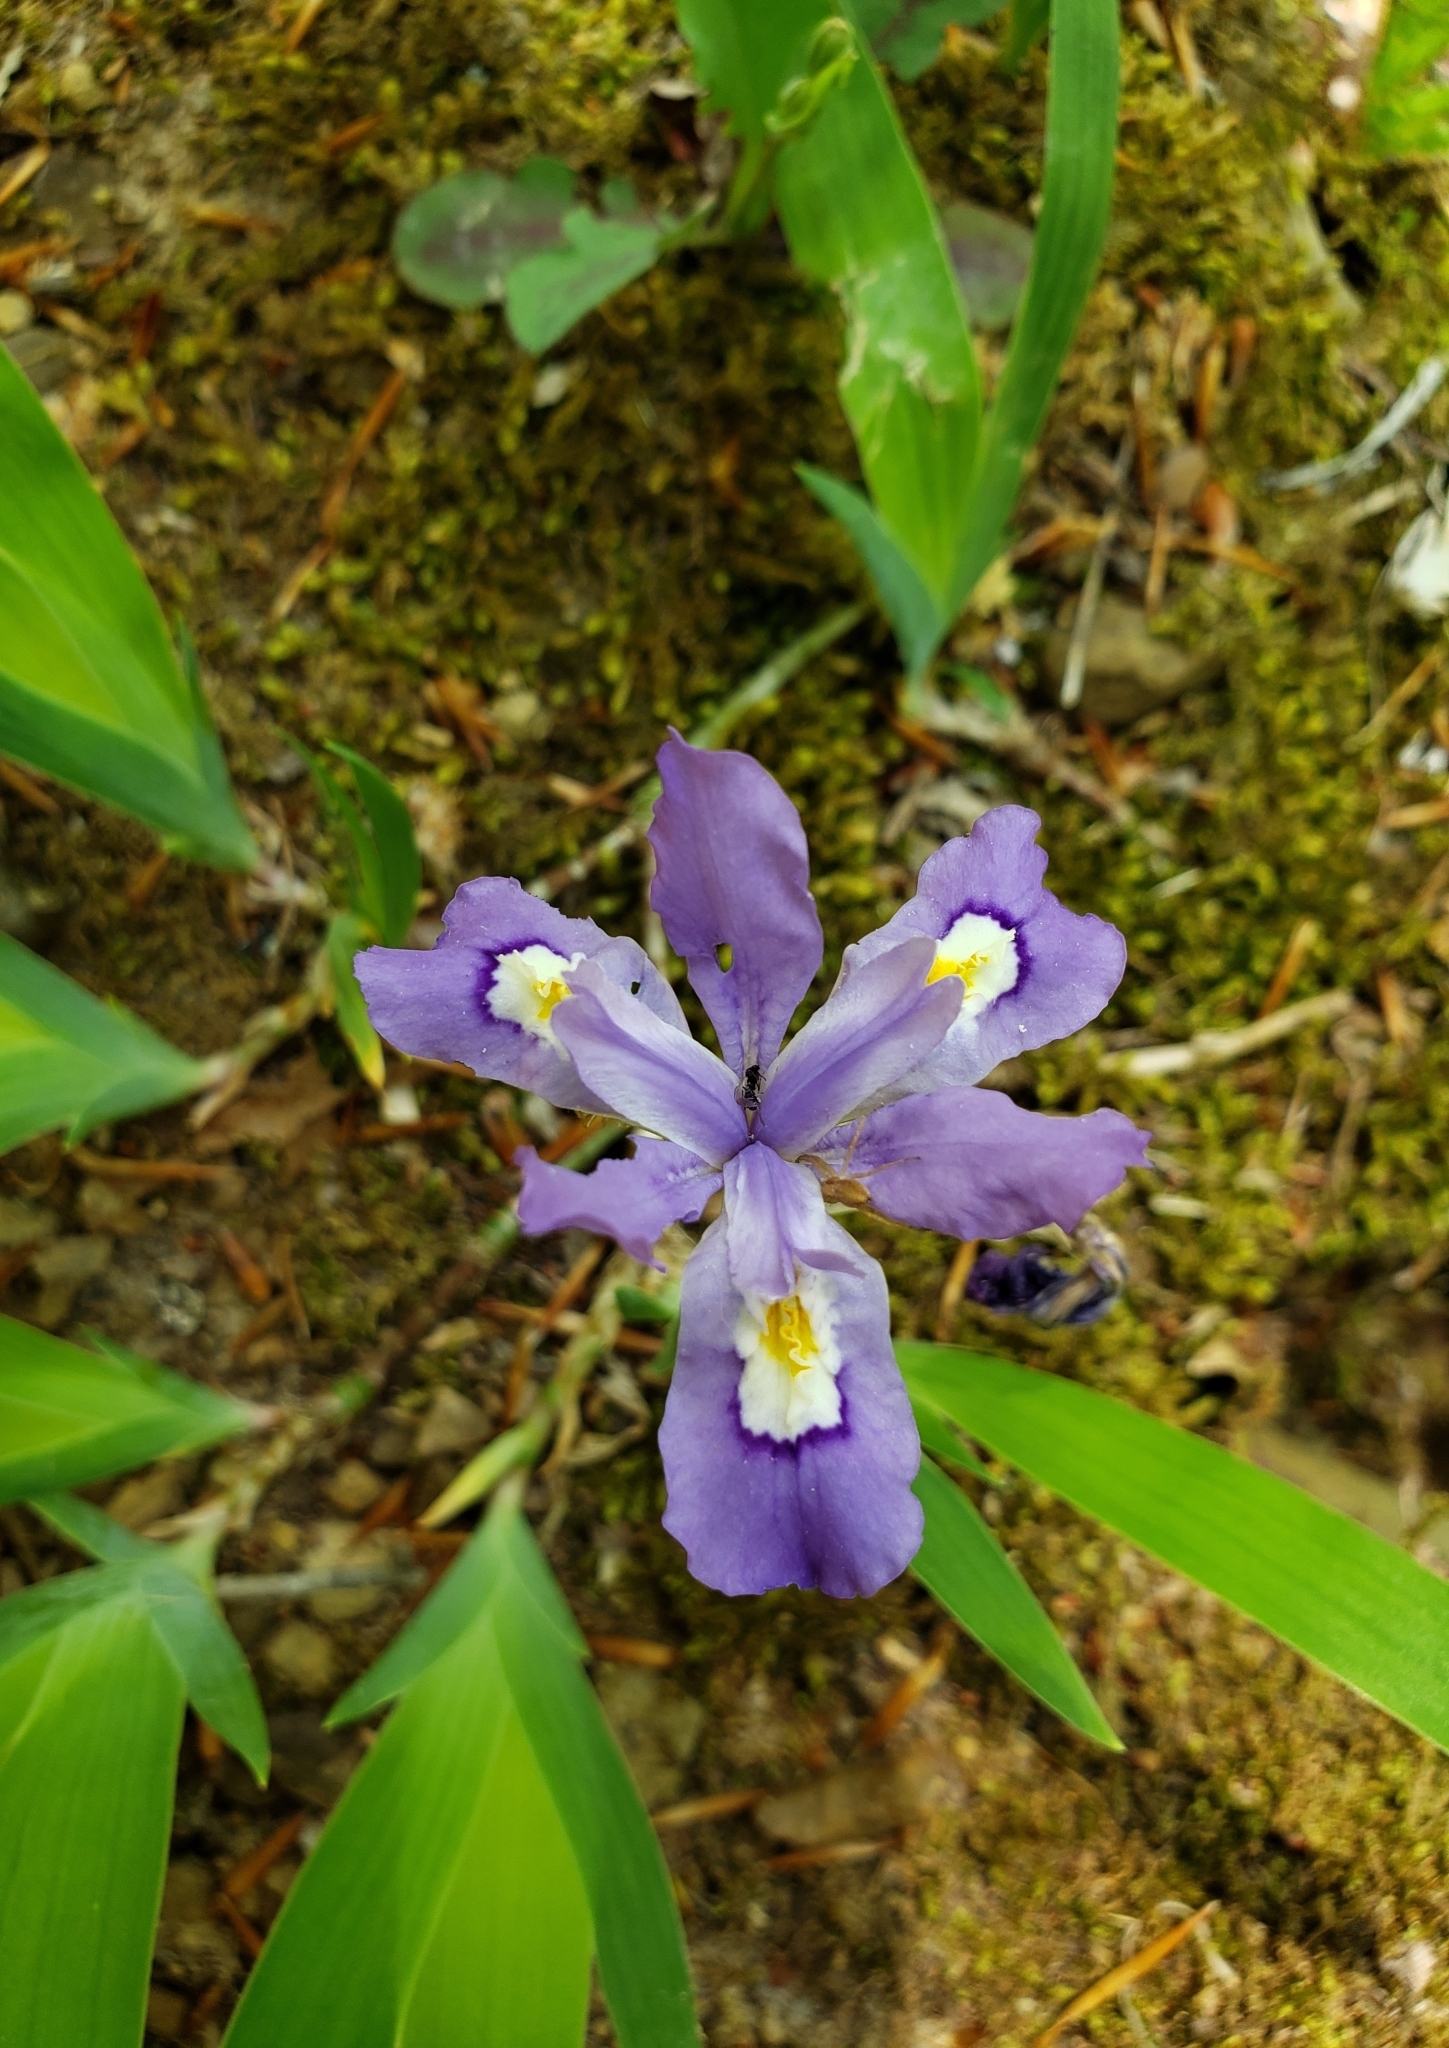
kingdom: Plantae
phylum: Tracheophyta
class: Liliopsida
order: Asparagales
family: Iridaceae
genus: Iris
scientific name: Iris cristata
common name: Crested iris
